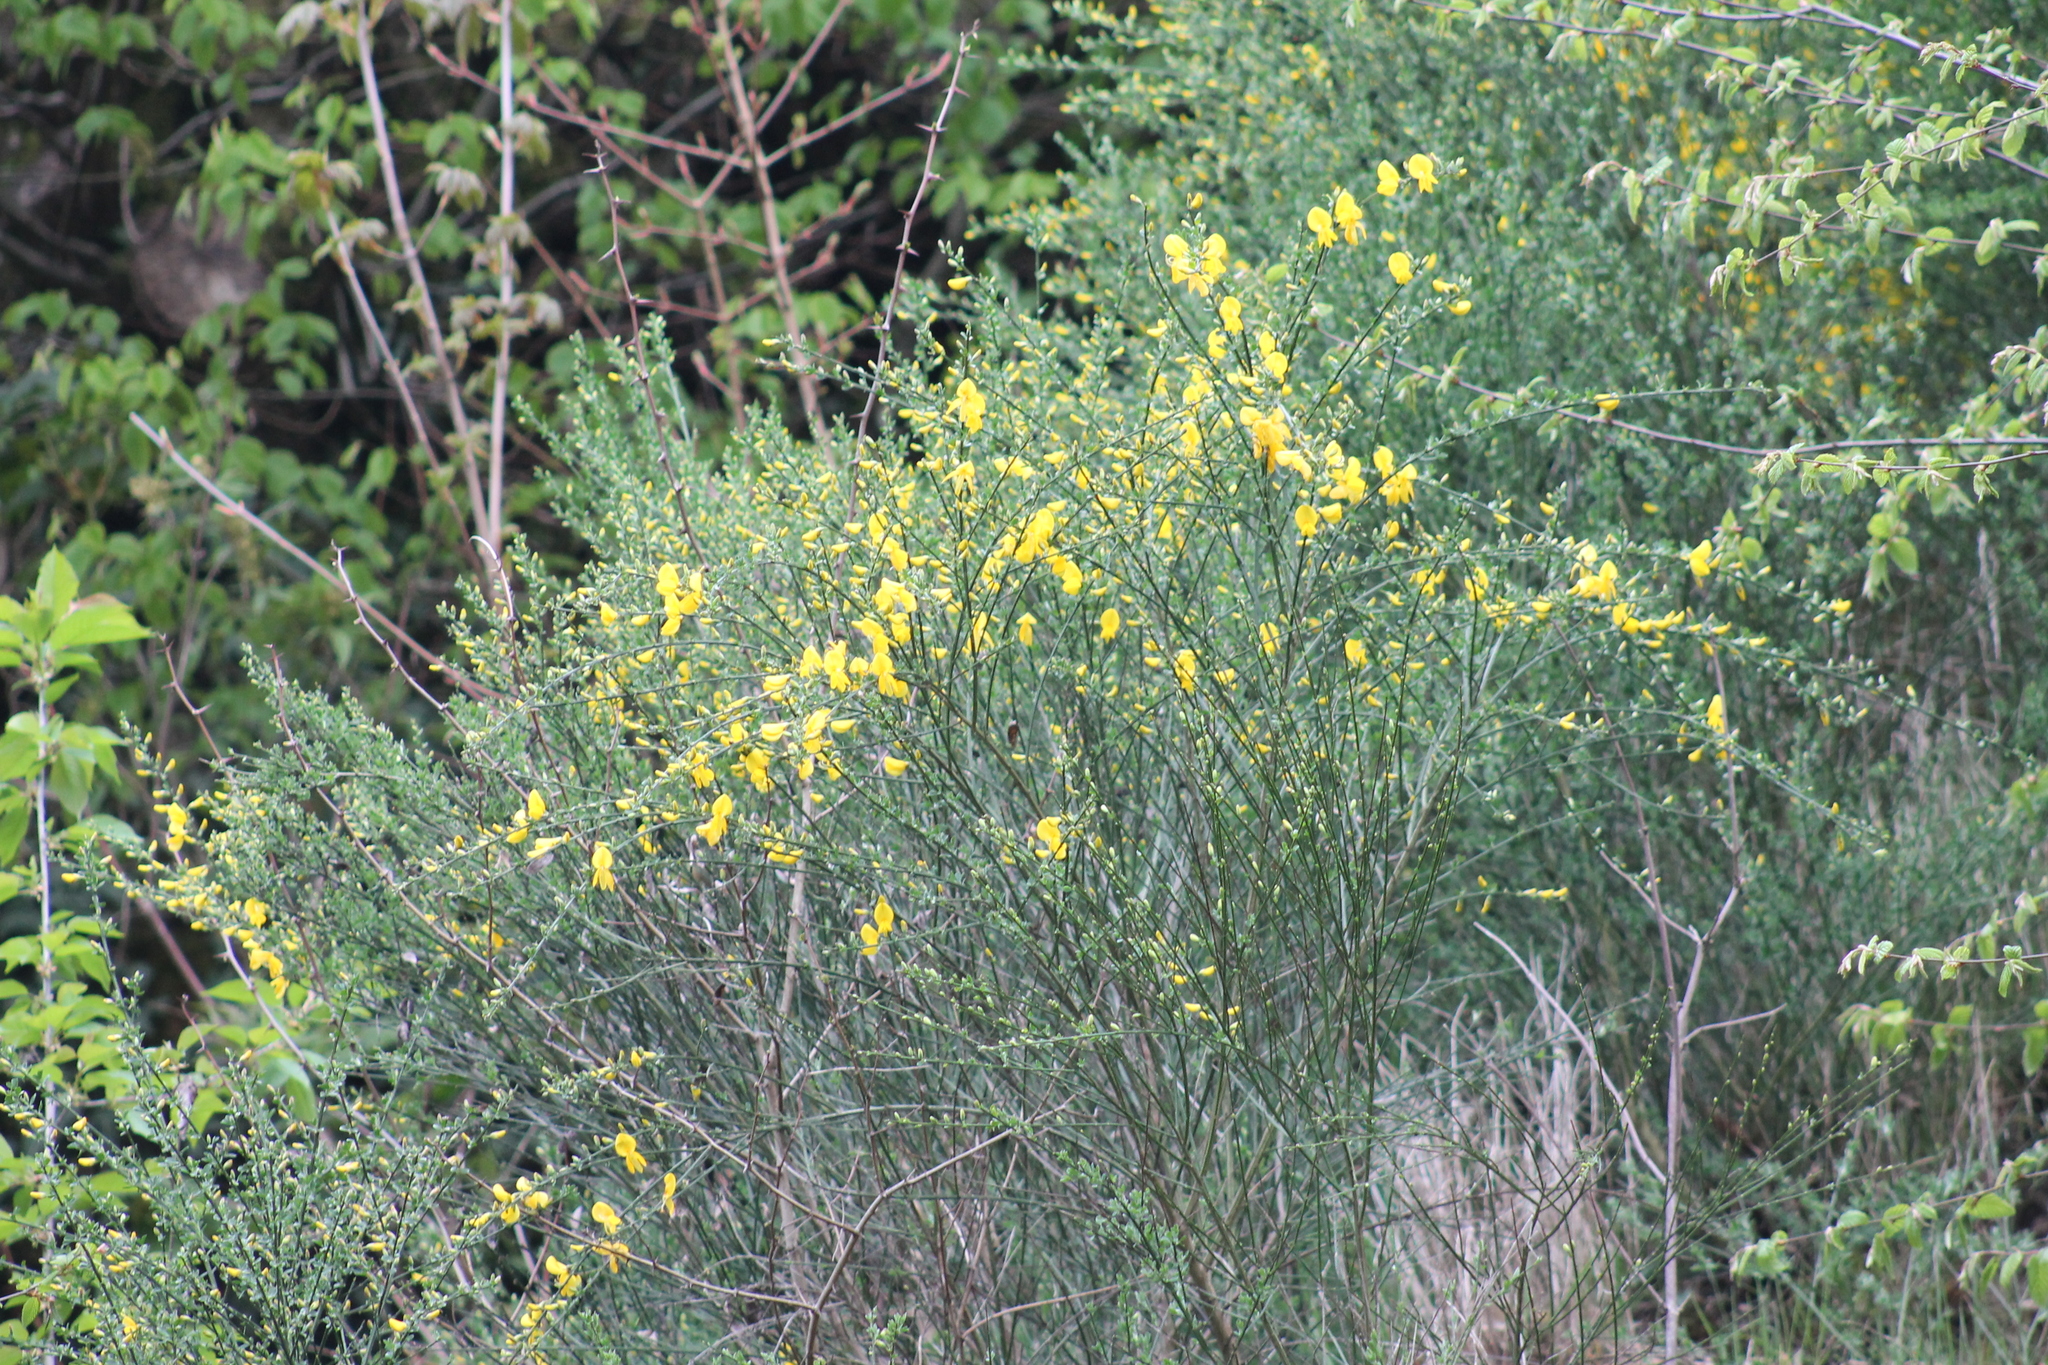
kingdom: Plantae
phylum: Tracheophyta
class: Magnoliopsida
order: Fabales
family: Fabaceae
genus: Cytisus
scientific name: Cytisus scoparius
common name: Scotch broom
